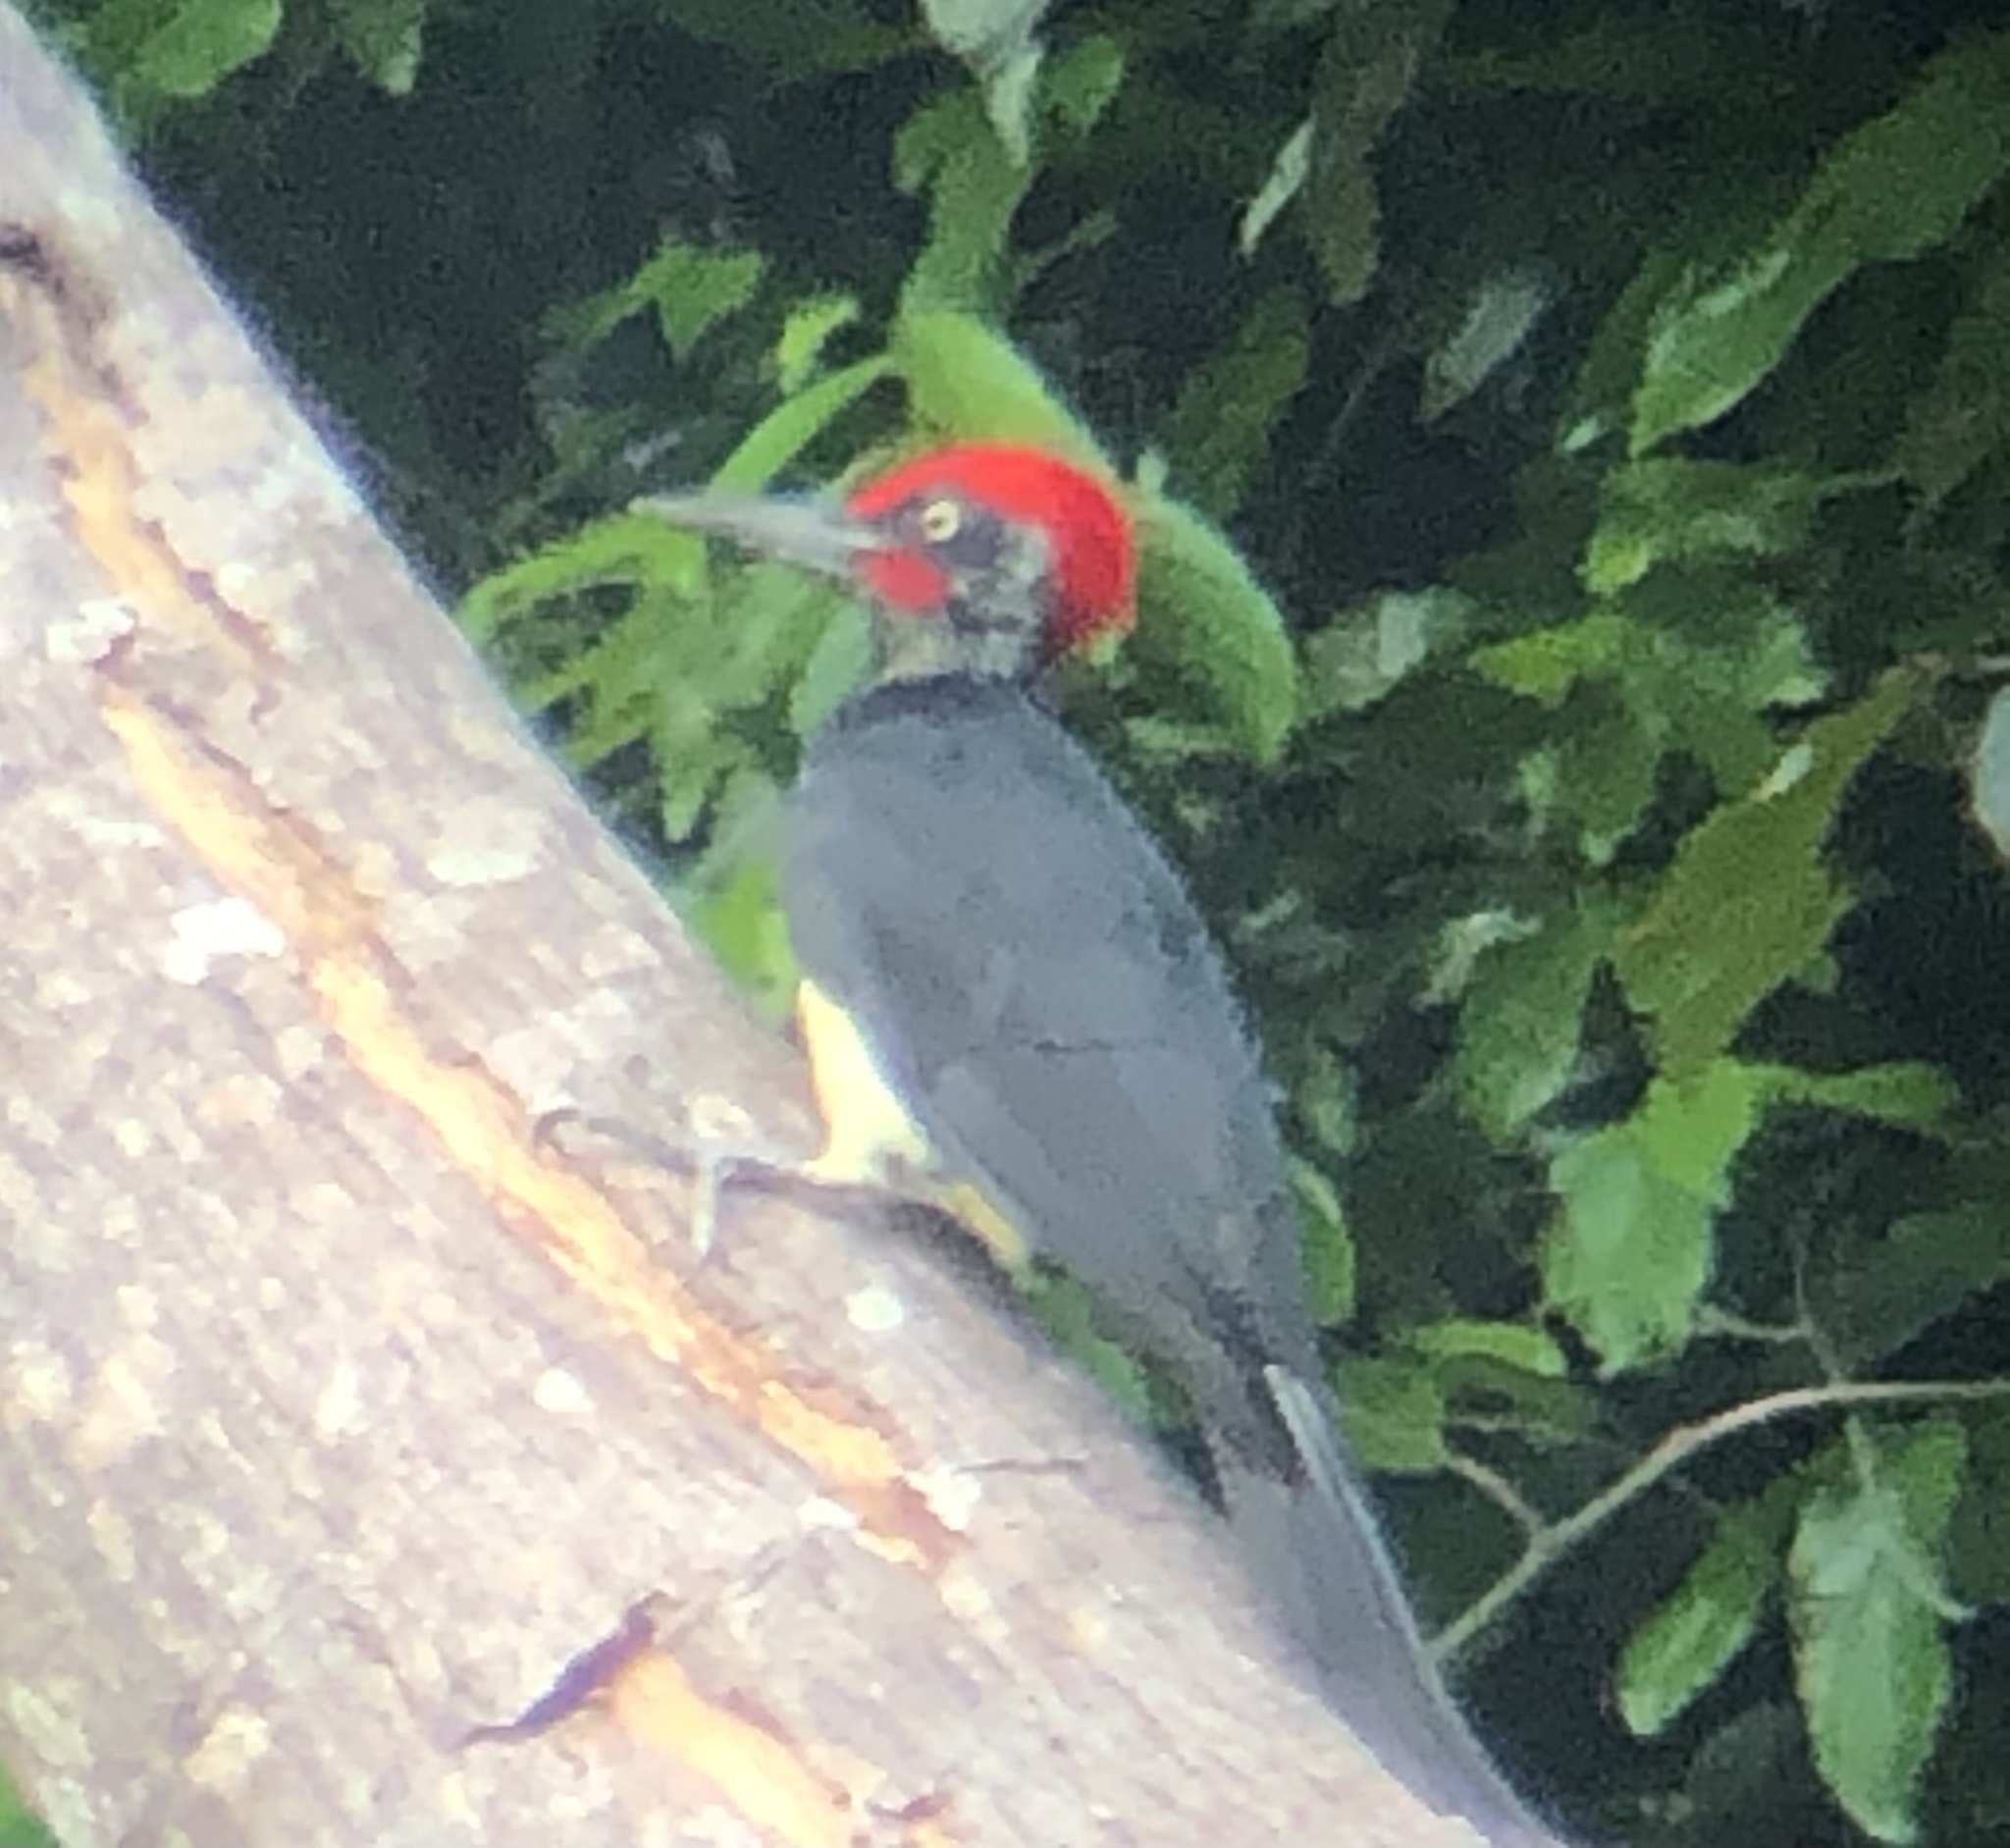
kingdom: Animalia
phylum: Chordata
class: Aves
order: Piciformes
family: Picidae
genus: Dryocopus
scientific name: Dryocopus javensis
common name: White-bellied woodpecker
